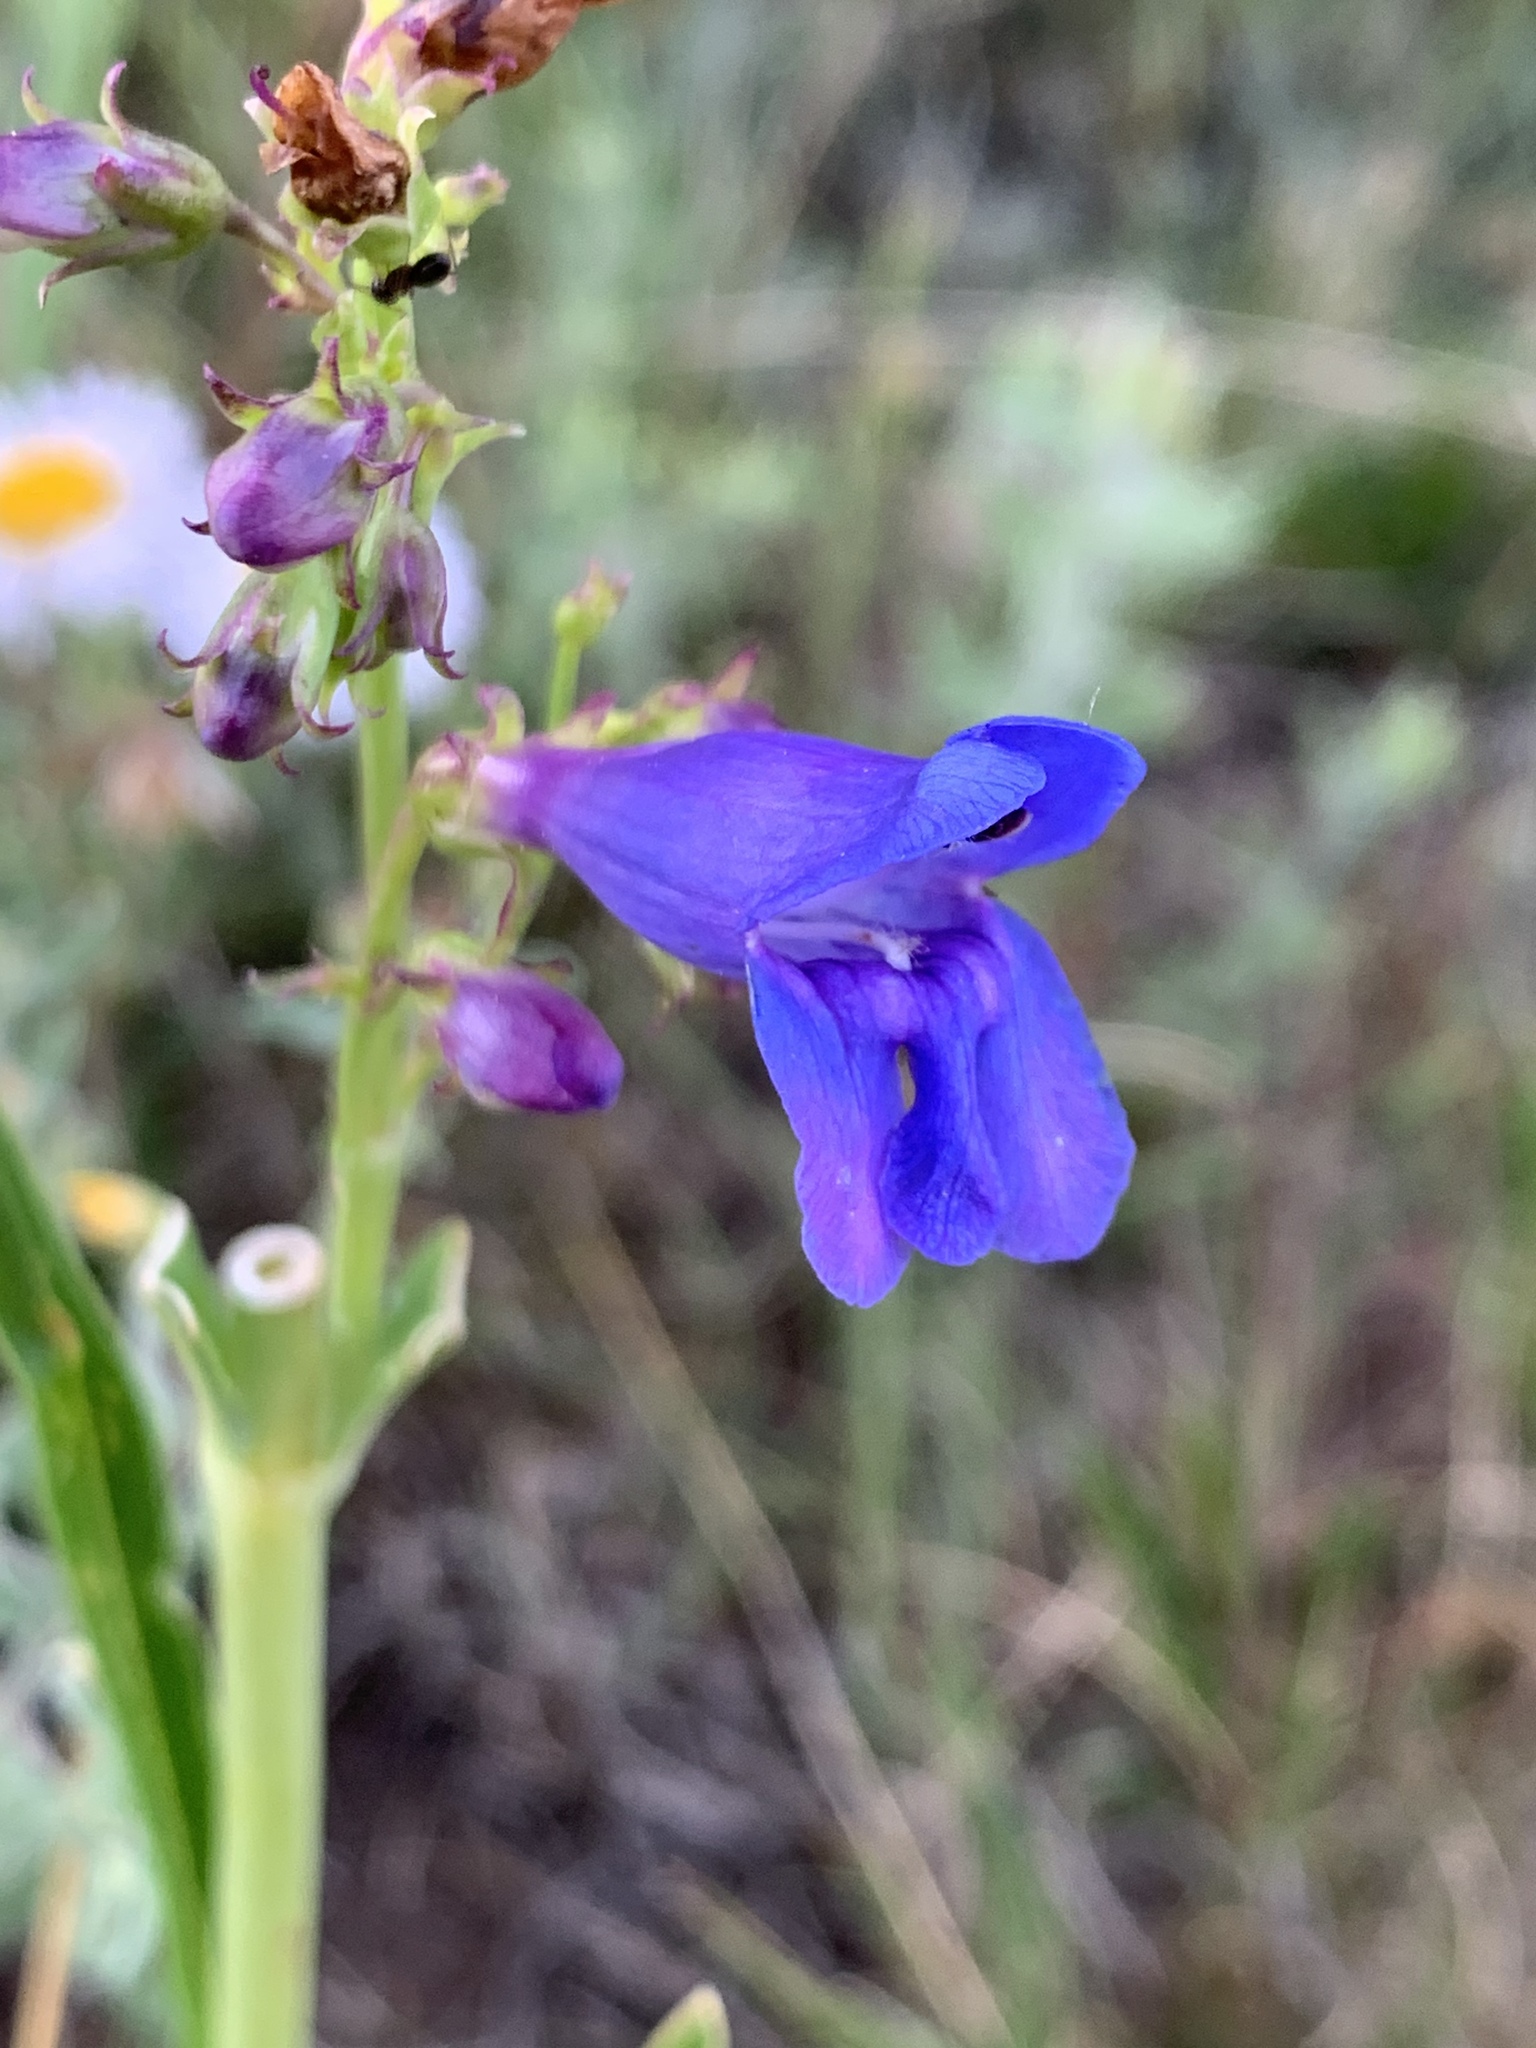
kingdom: Plantae
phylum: Tracheophyta
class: Magnoliopsida
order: Lamiales
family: Plantaginaceae
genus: Penstemon
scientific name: Penstemon strictus
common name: Rocky mountain penstemon
